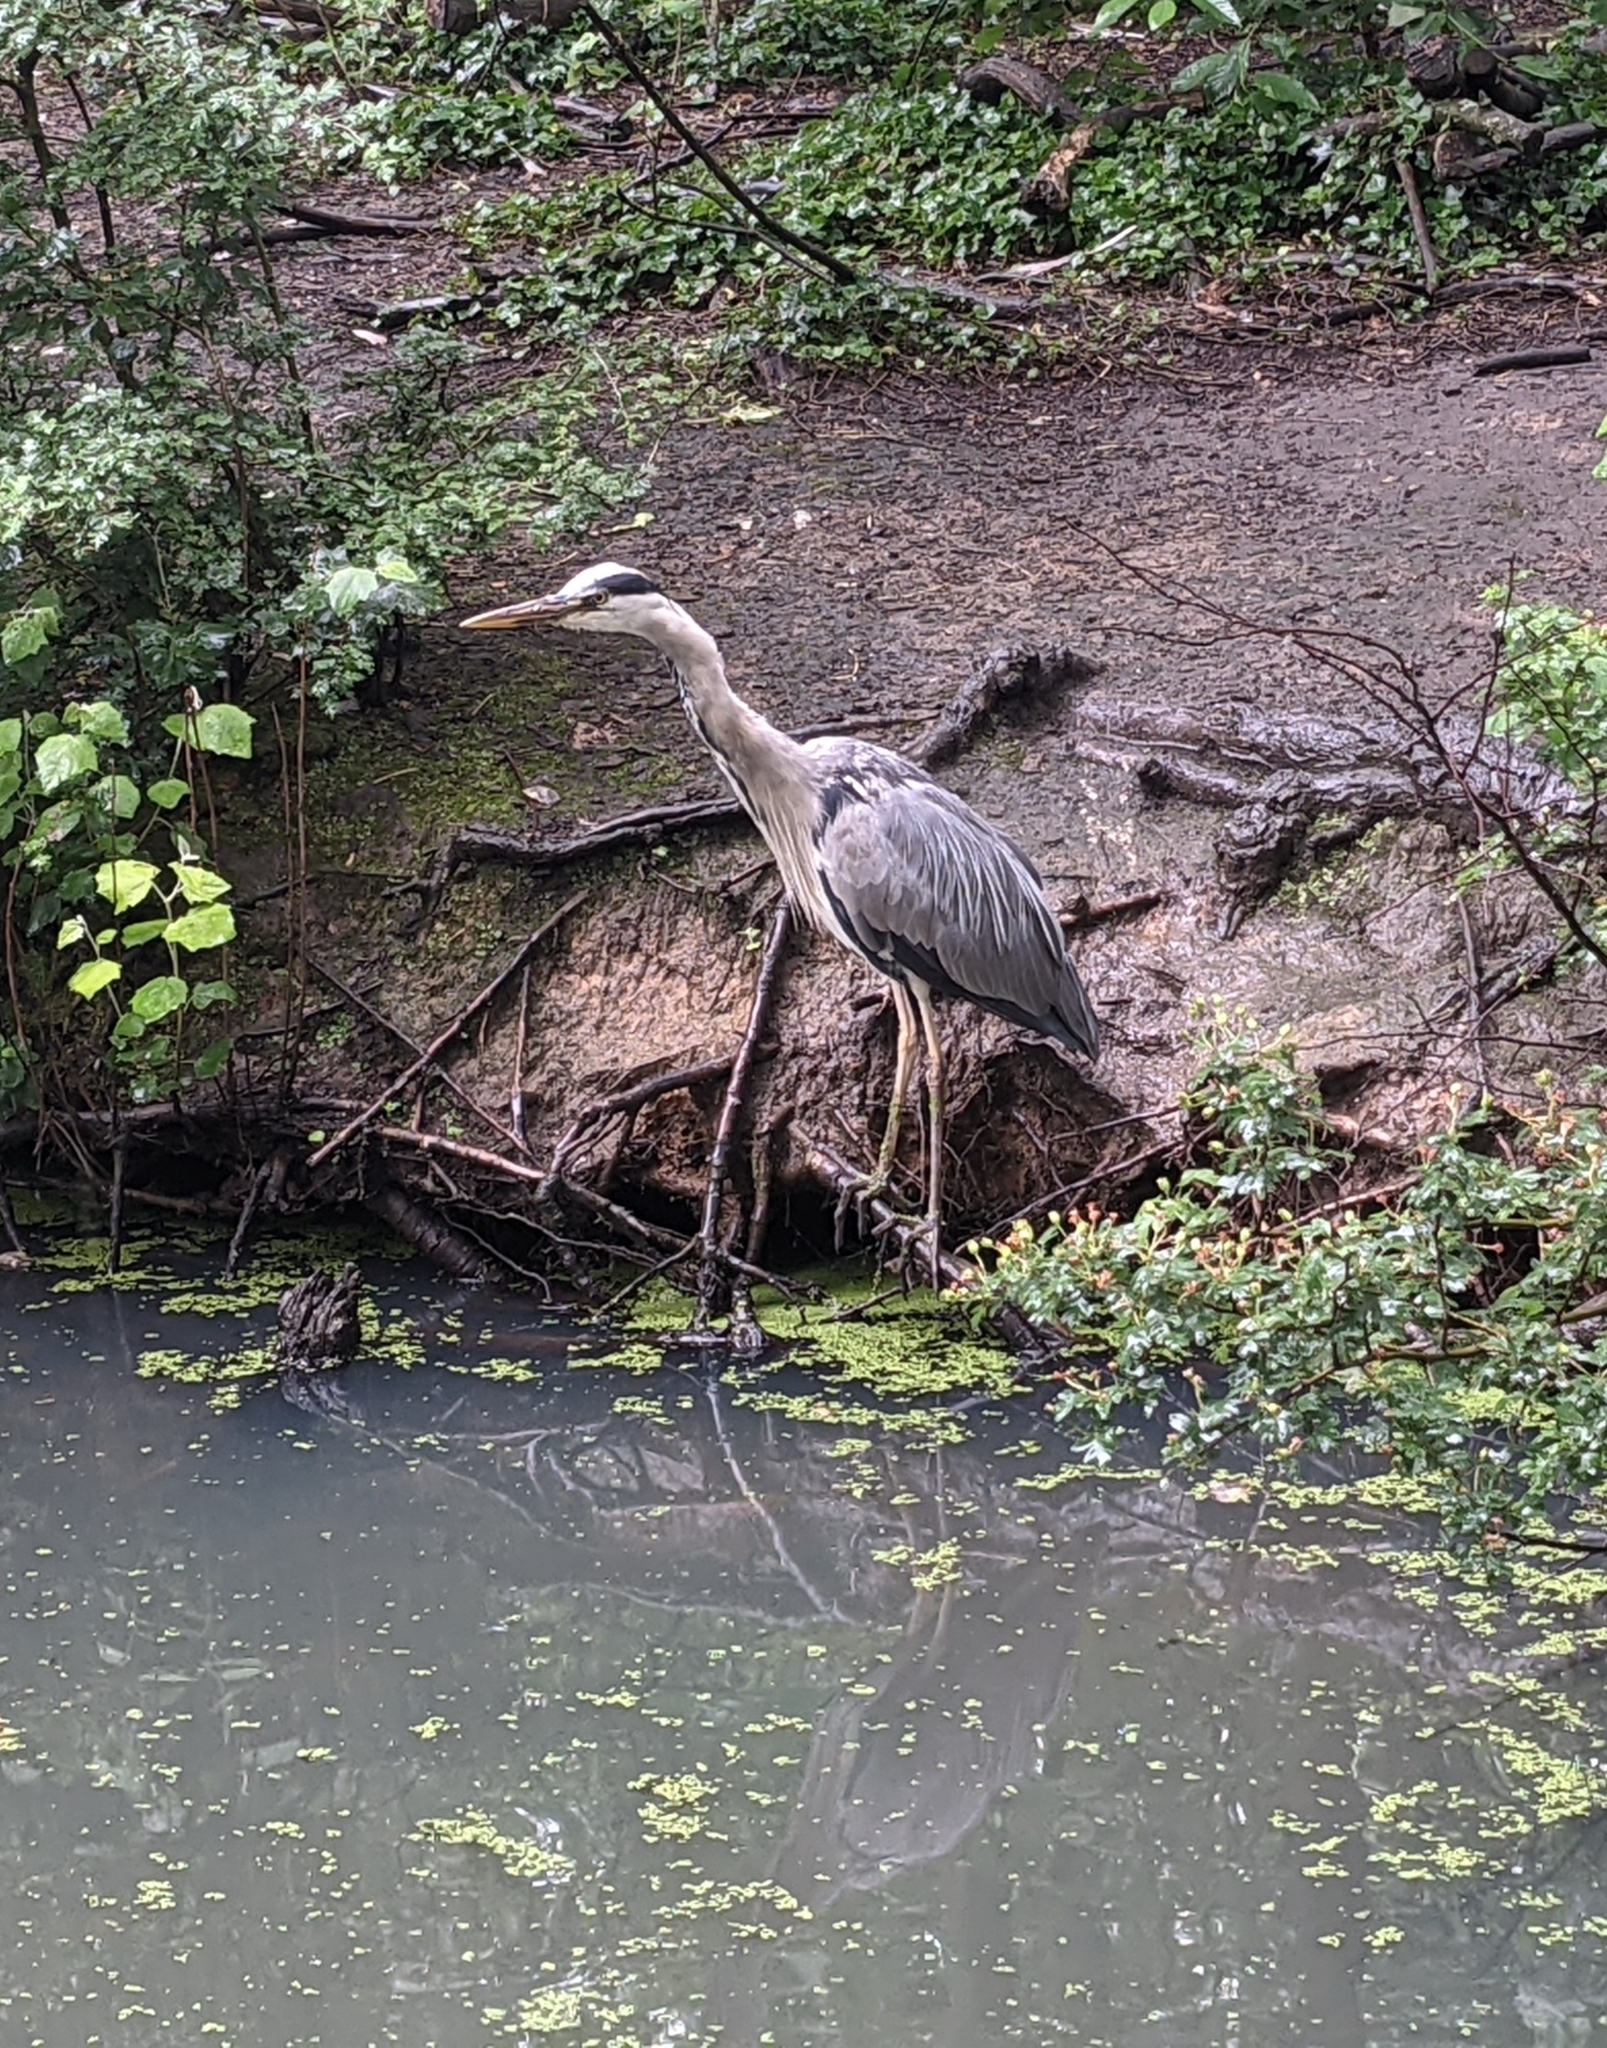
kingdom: Animalia
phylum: Chordata
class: Aves
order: Pelecaniformes
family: Ardeidae
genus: Ardea
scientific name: Ardea cinerea
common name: Grey heron
